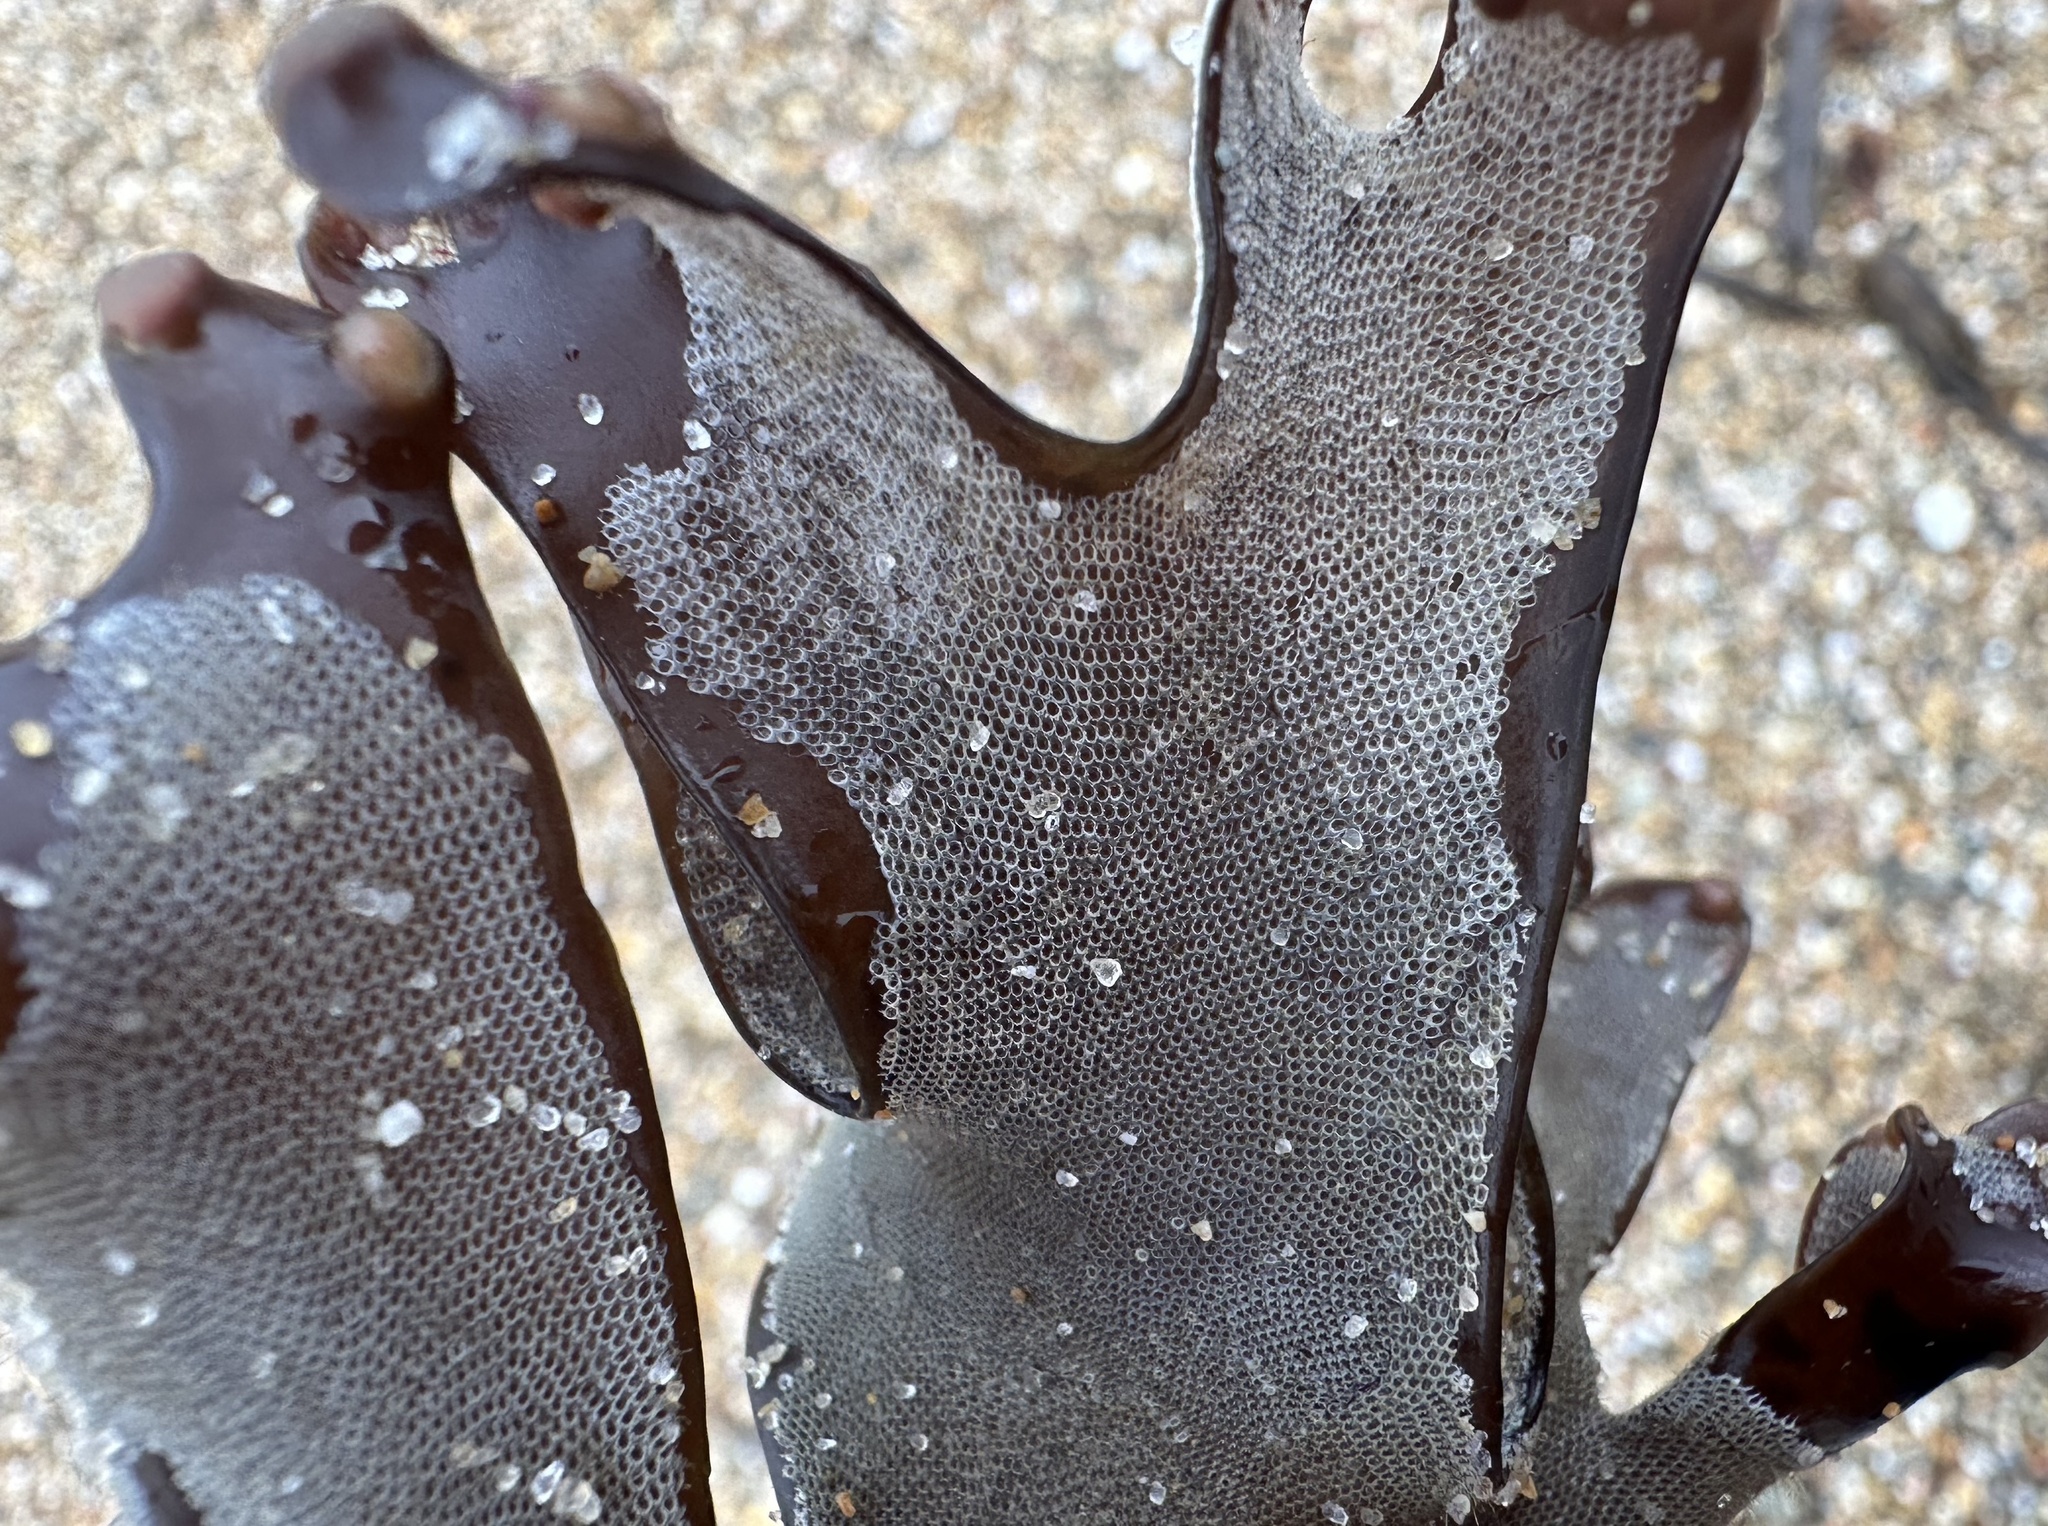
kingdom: Animalia
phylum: Bryozoa
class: Gymnolaemata
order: Cheilostomatida
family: Electridae
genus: Electra
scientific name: Electra pilosa
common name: Hairy sea-mat
